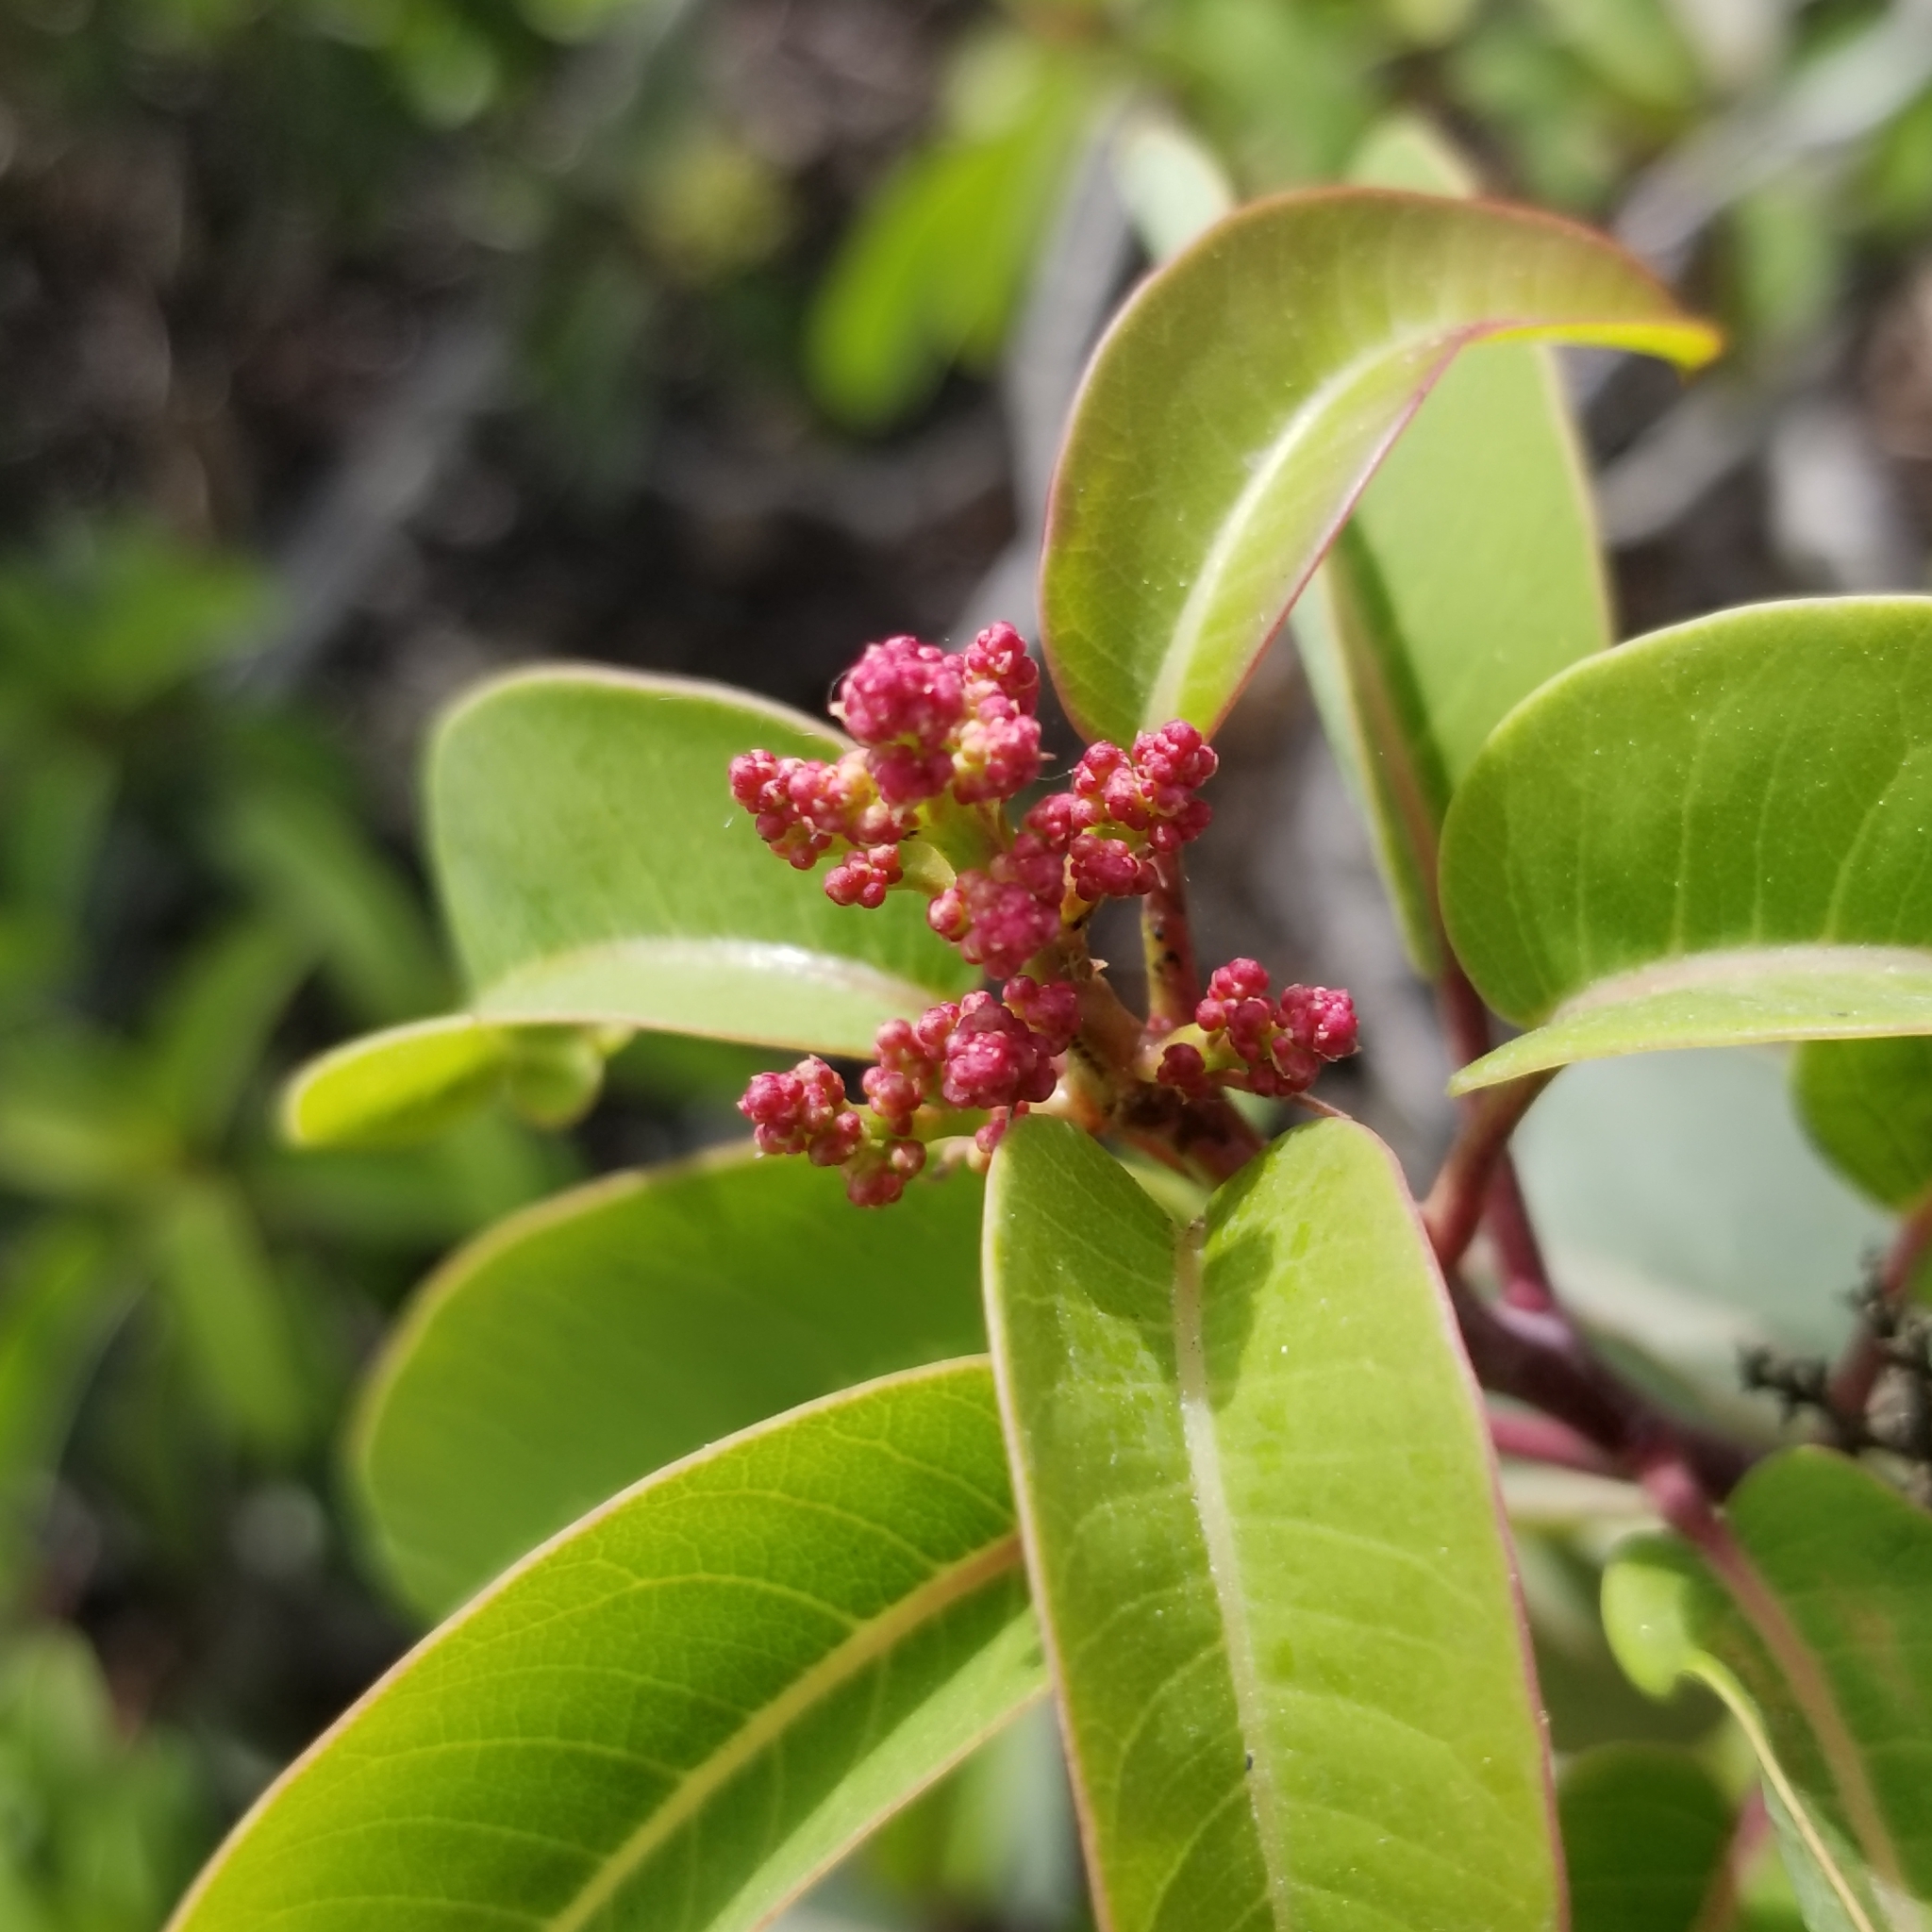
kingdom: Plantae
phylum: Tracheophyta
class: Magnoliopsida
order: Sapindales
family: Anacardiaceae
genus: Malosma
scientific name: Malosma laurina
